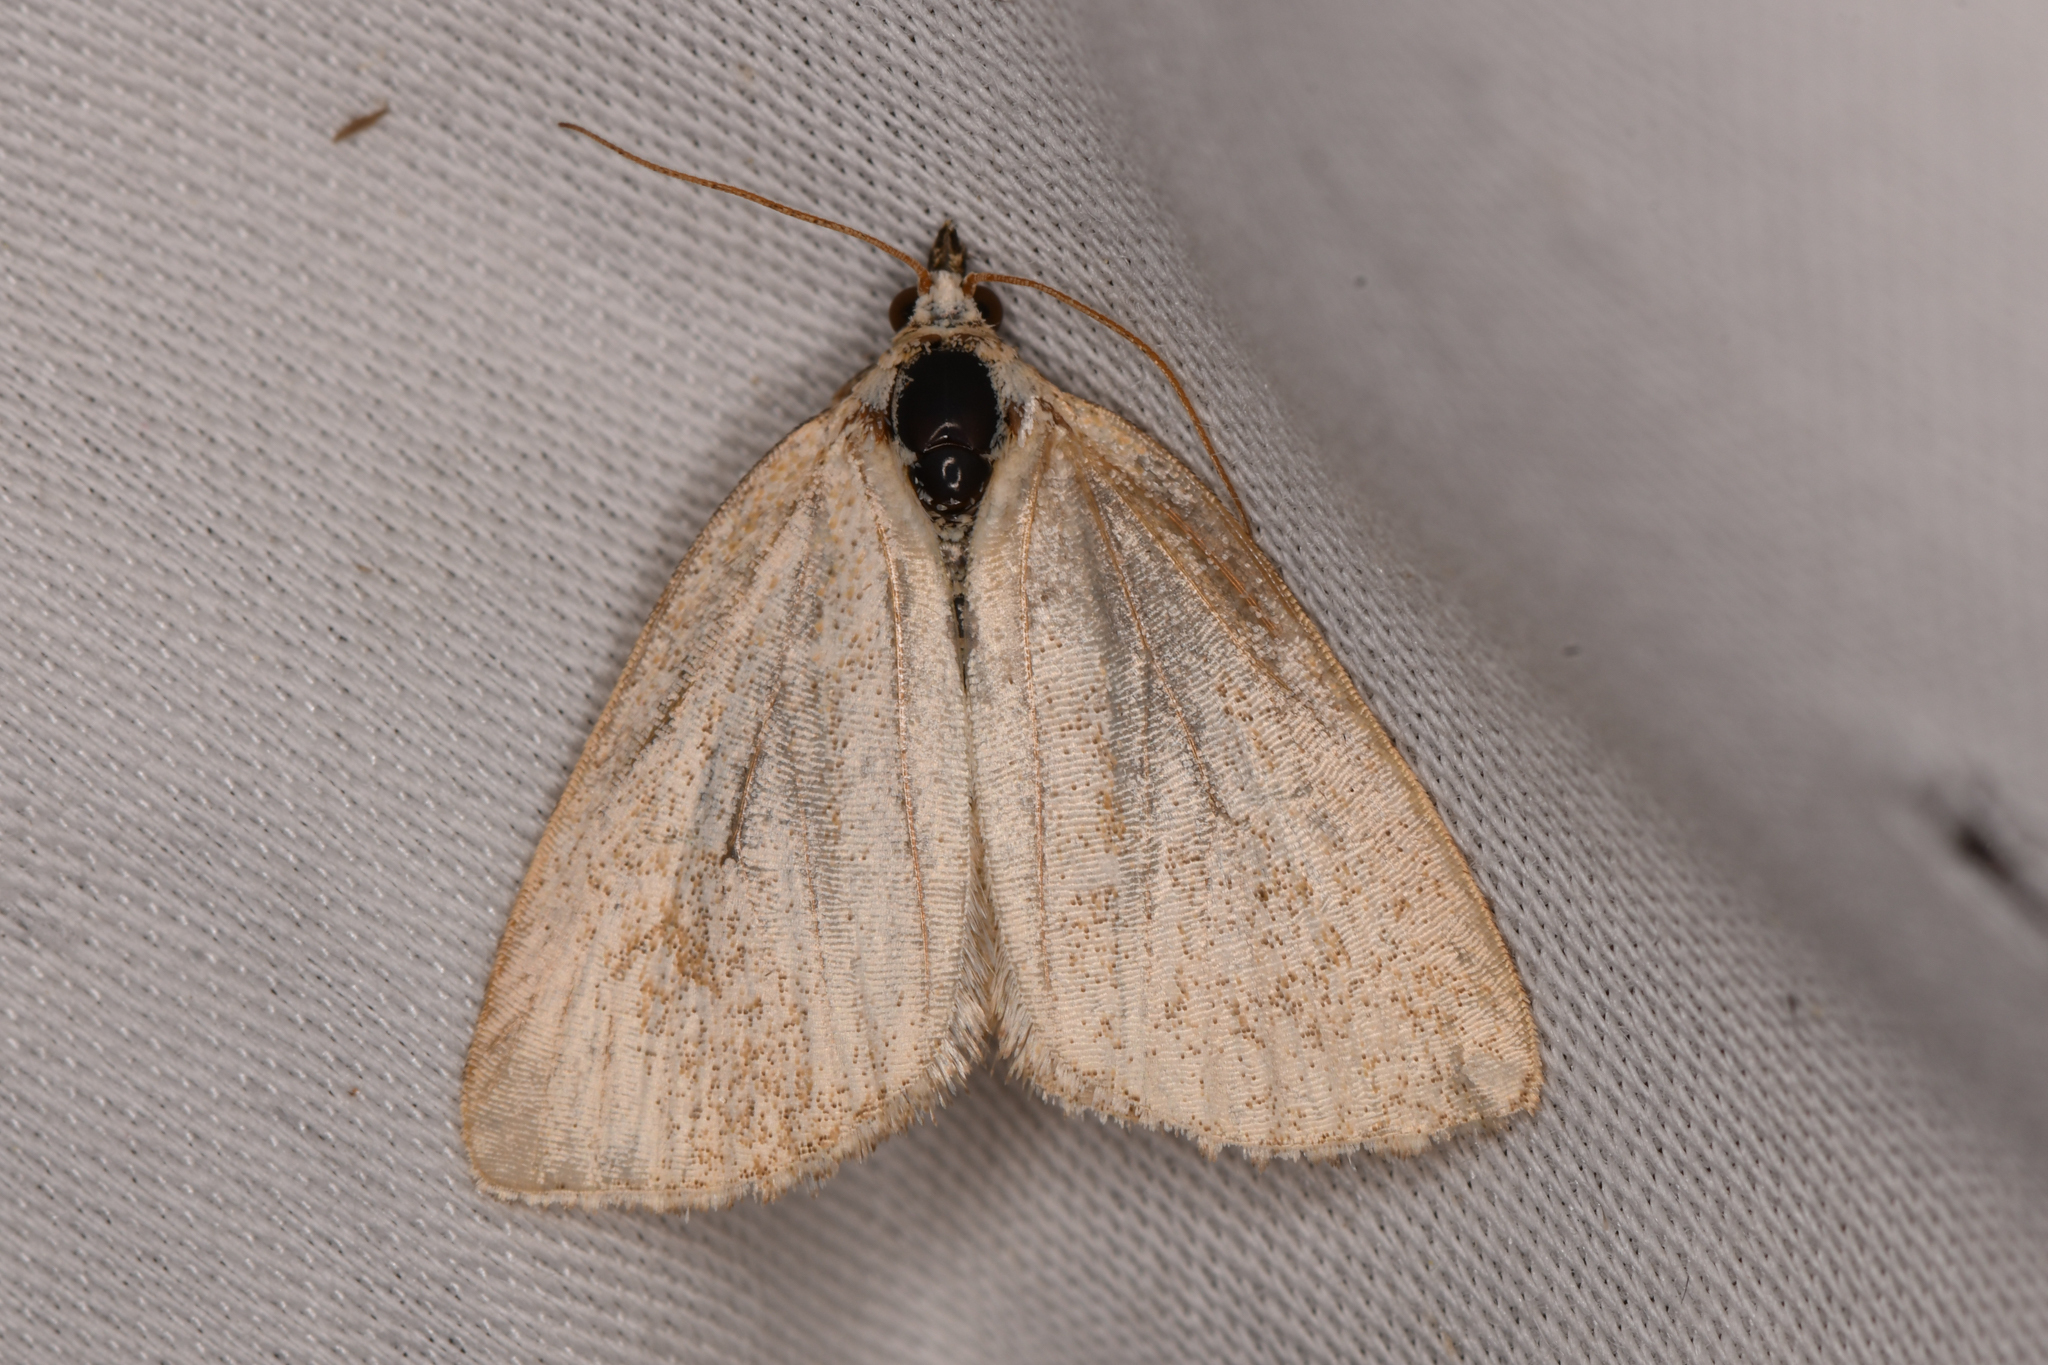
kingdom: Animalia
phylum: Arthropoda
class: Insecta
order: Lepidoptera
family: Noctuidae
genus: Protodeltote
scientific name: Protodeltote albidula
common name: Pale glyph
